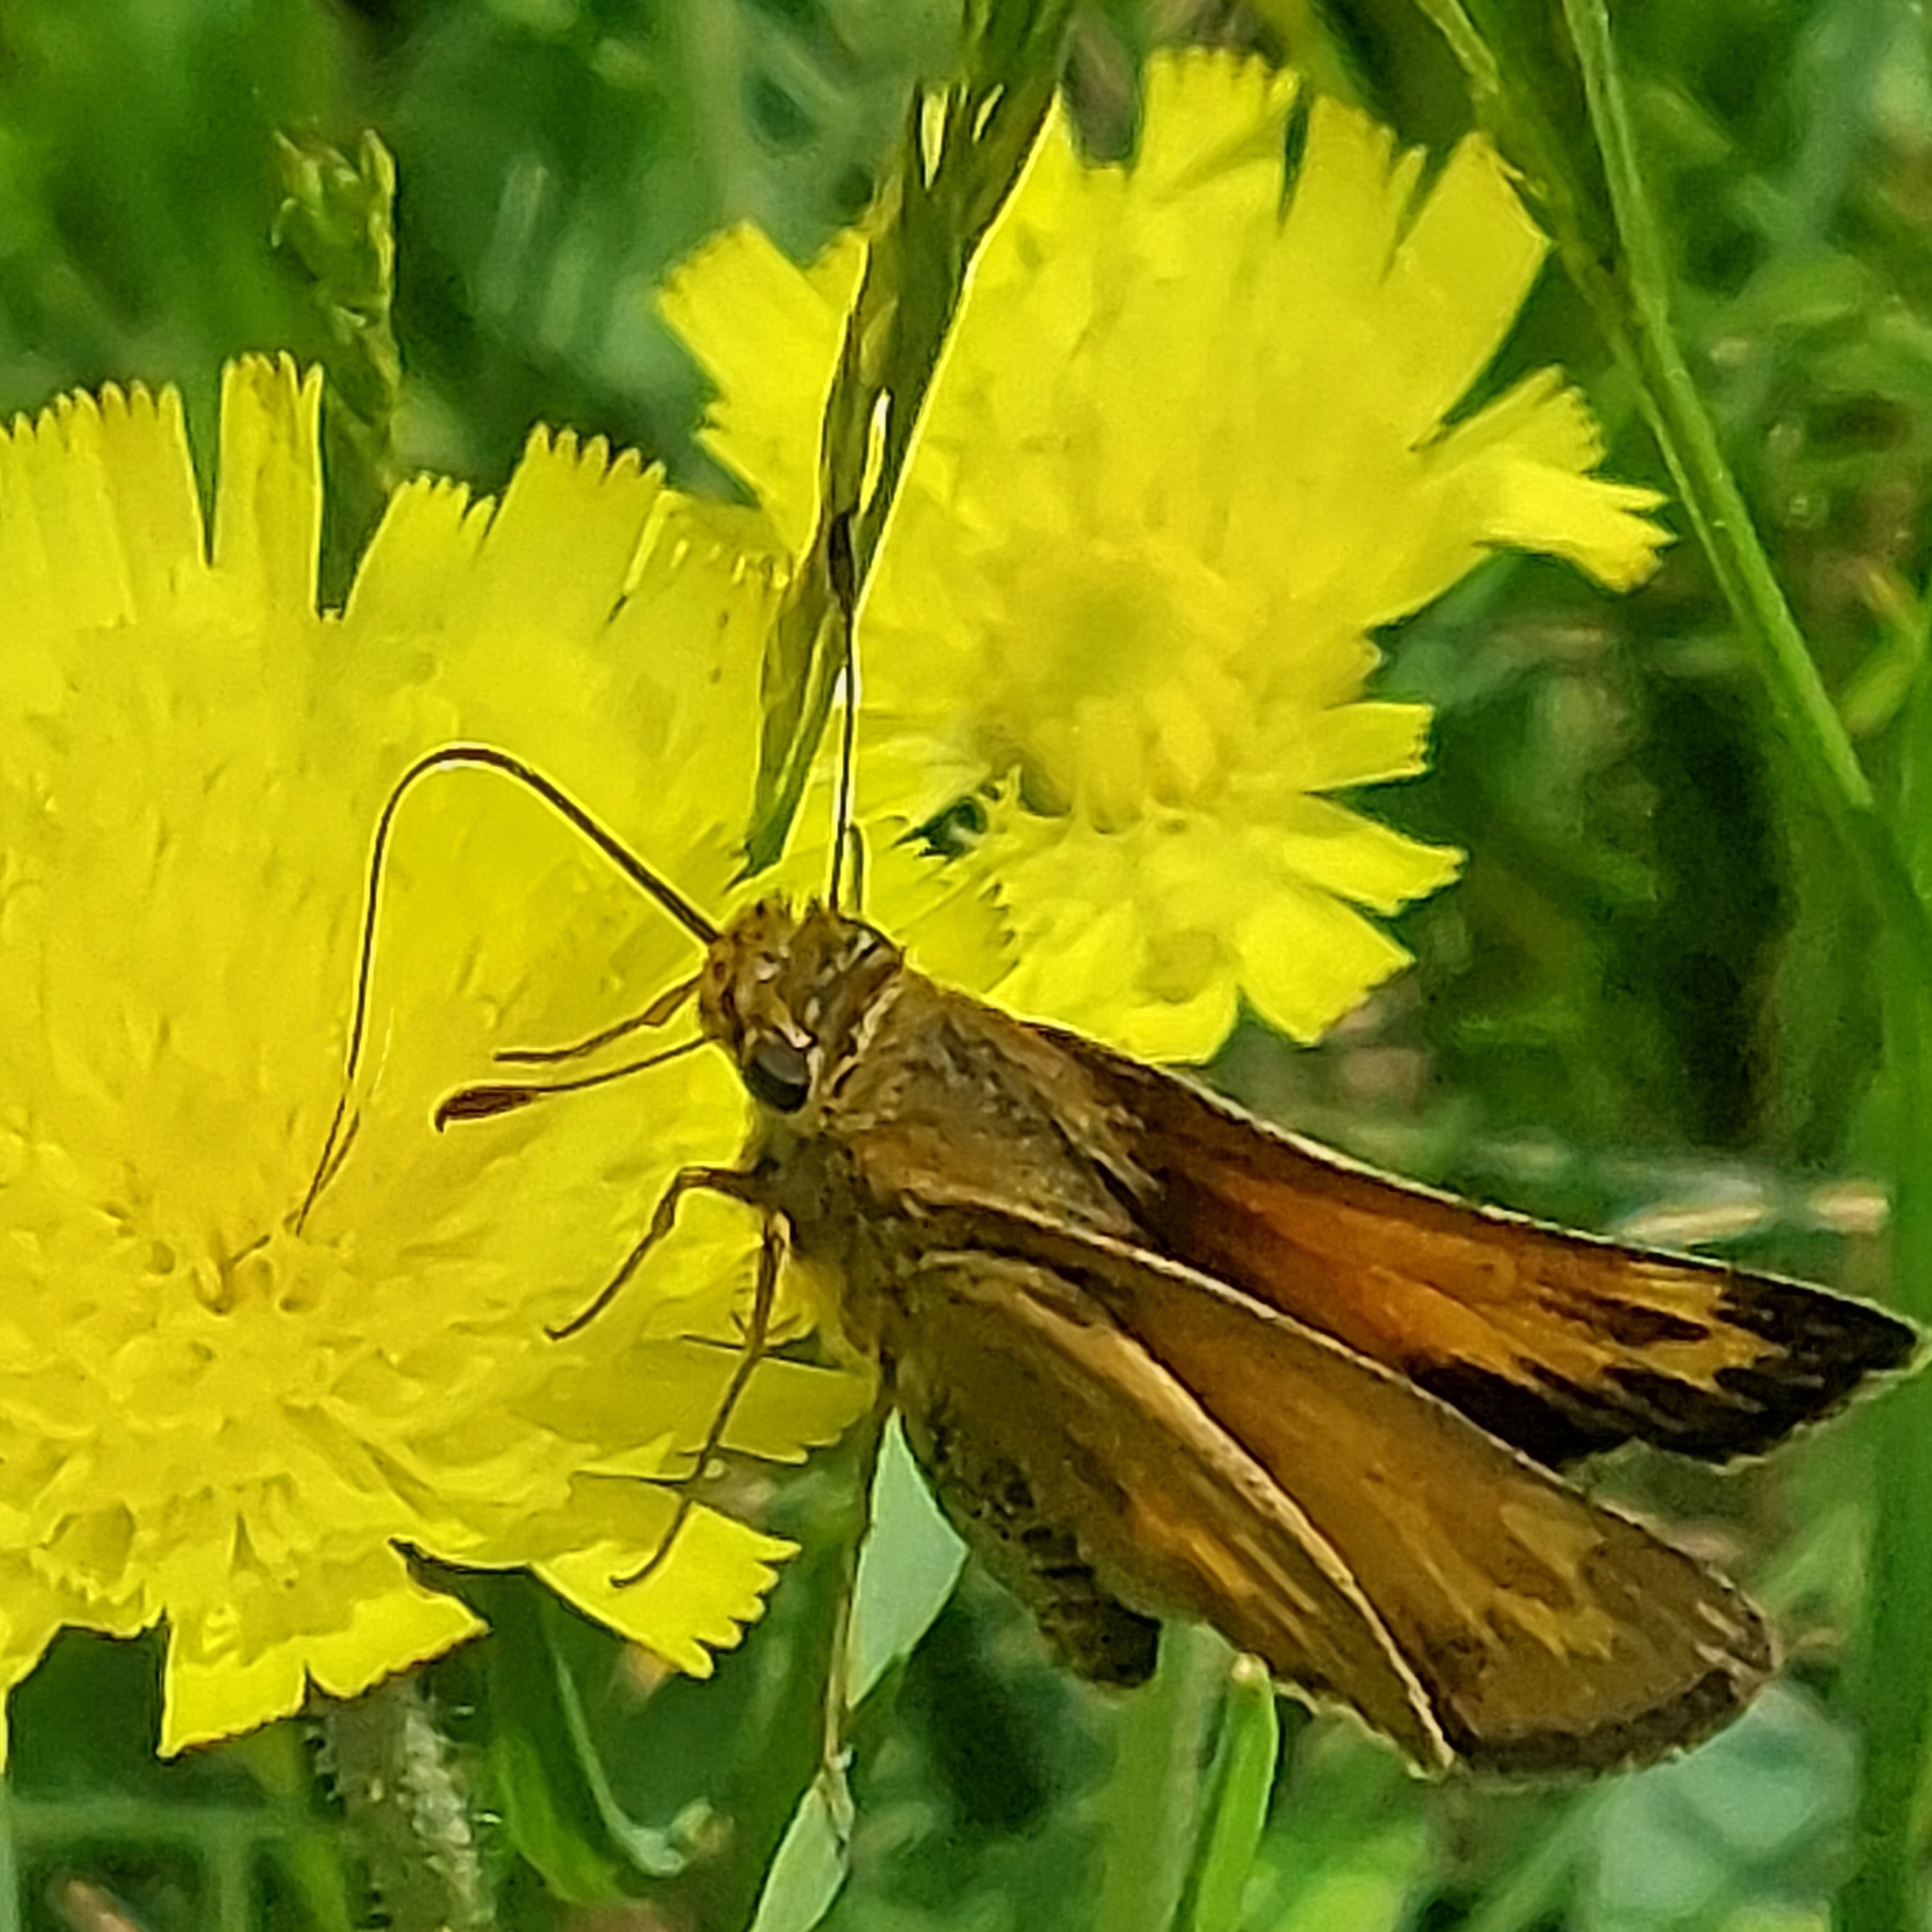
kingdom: Animalia
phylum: Arthropoda
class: Insecta
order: Lepidoptera
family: Hesperiidae
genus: Hesperia
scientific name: Hesperia sassacus
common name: Indian skipper
